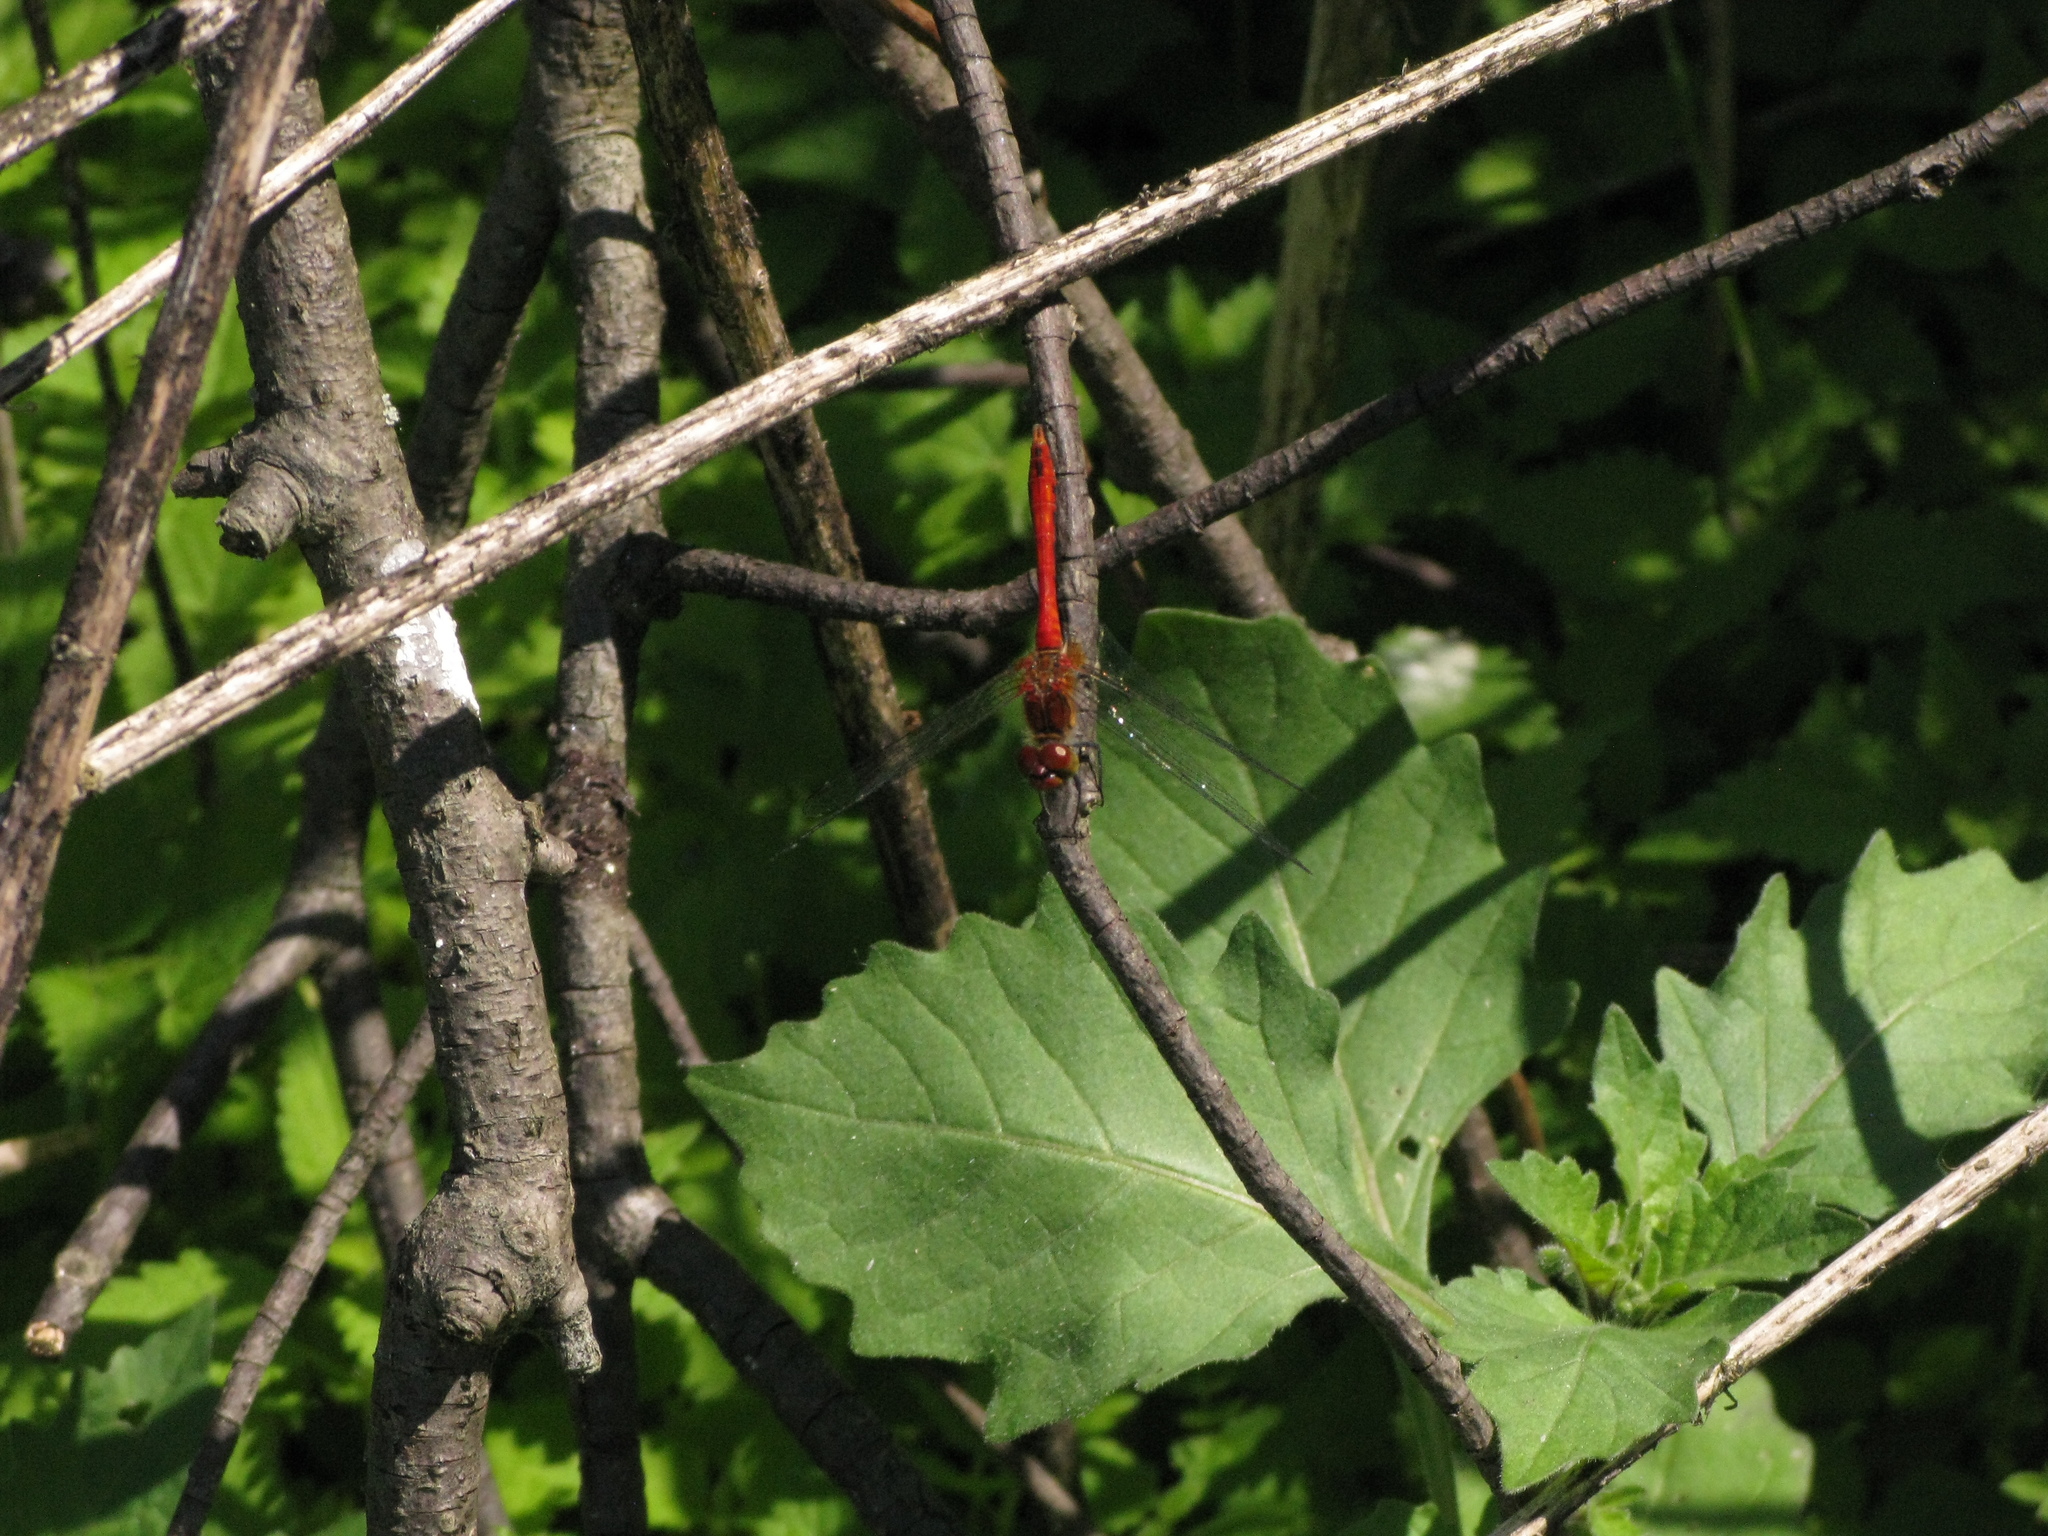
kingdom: Animalia
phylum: Arthropoda
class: Insecta
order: Odonata
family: Libellulidae
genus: Sympetrum
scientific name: Sympetrum sanguineum
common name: Ruddy darter
